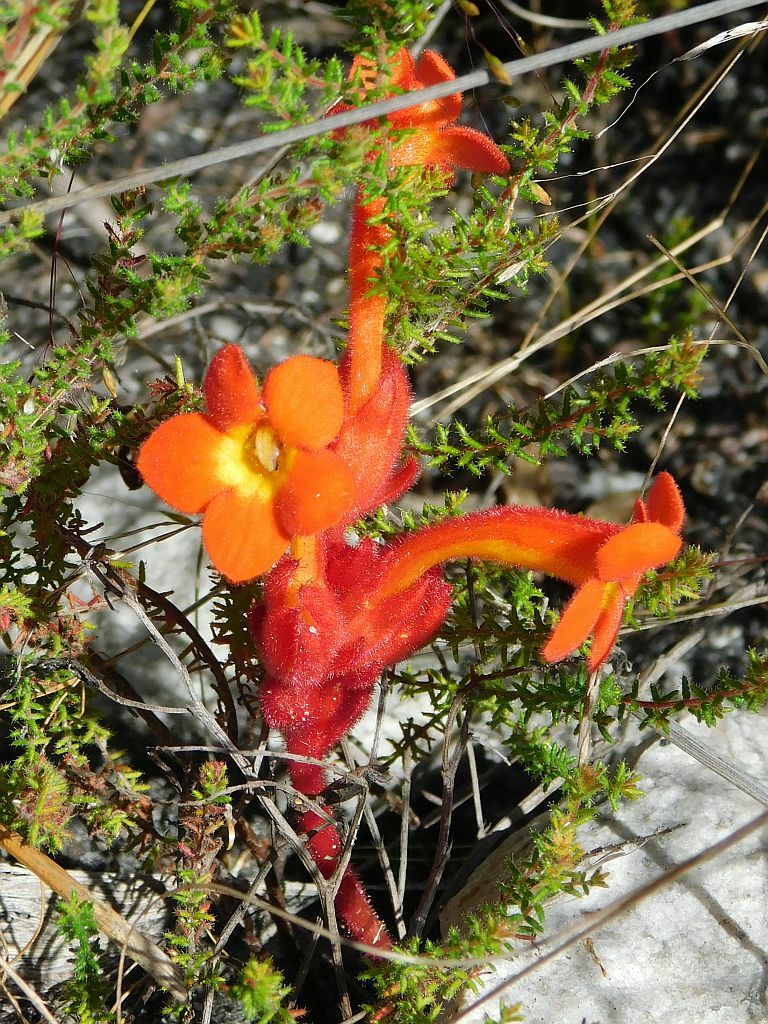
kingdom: Plantae
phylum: Tracheophyta
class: Magnoliopsida
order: Lamiales
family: Orobanchaceae
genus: Harveya
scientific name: Harveya bolusii
